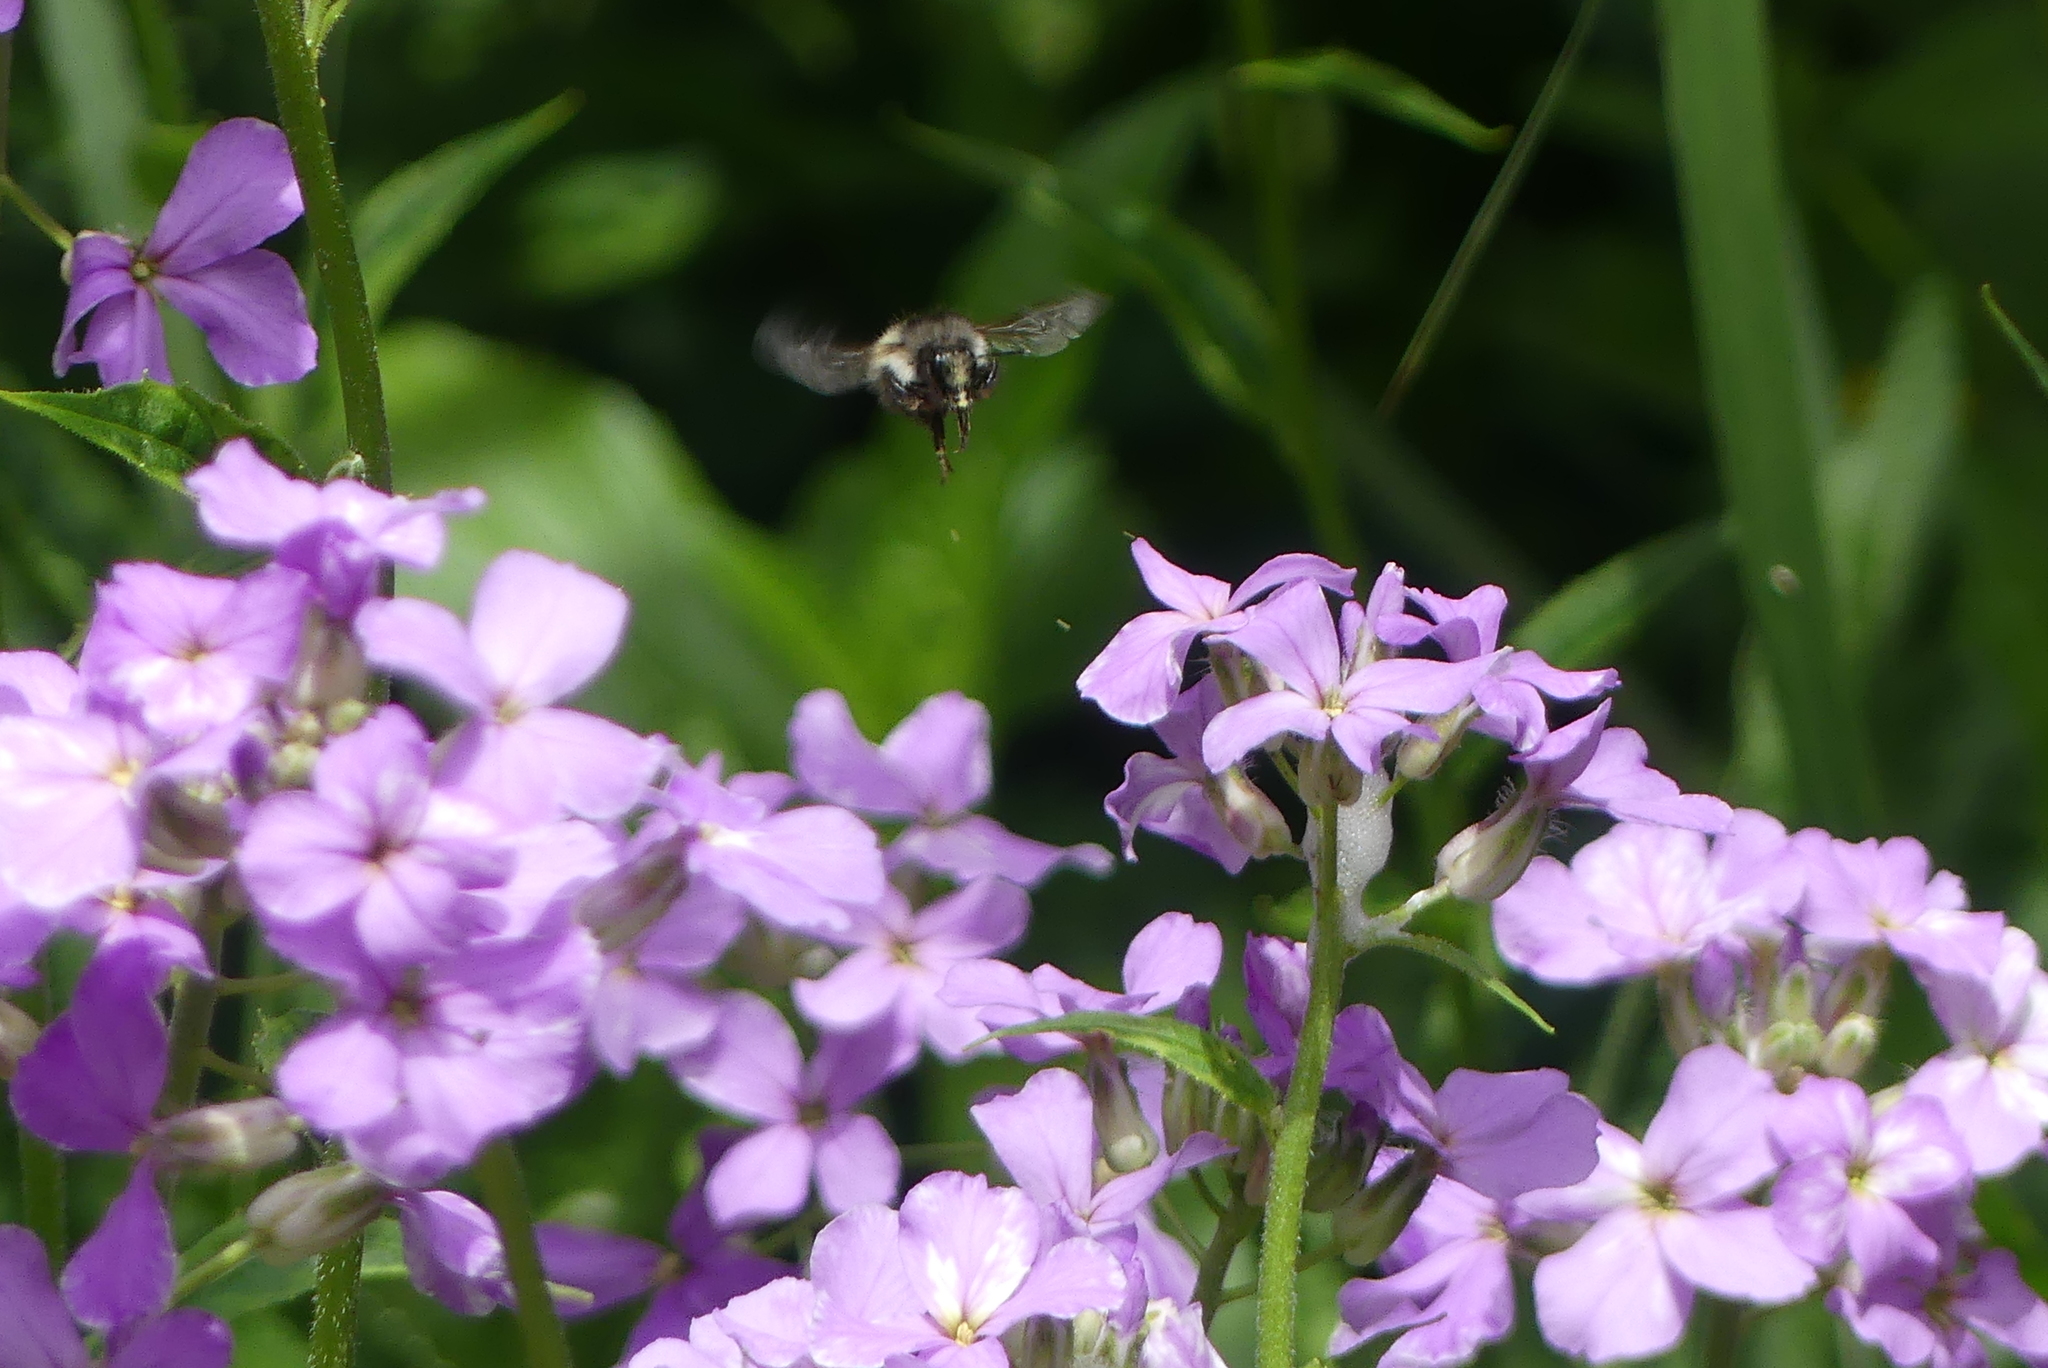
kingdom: Animalia
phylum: Arthropoda
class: Insecta
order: Hymenoptera
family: Apidae
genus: Bombus
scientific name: Bombus flavifrons
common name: Yellow head bumble bee
